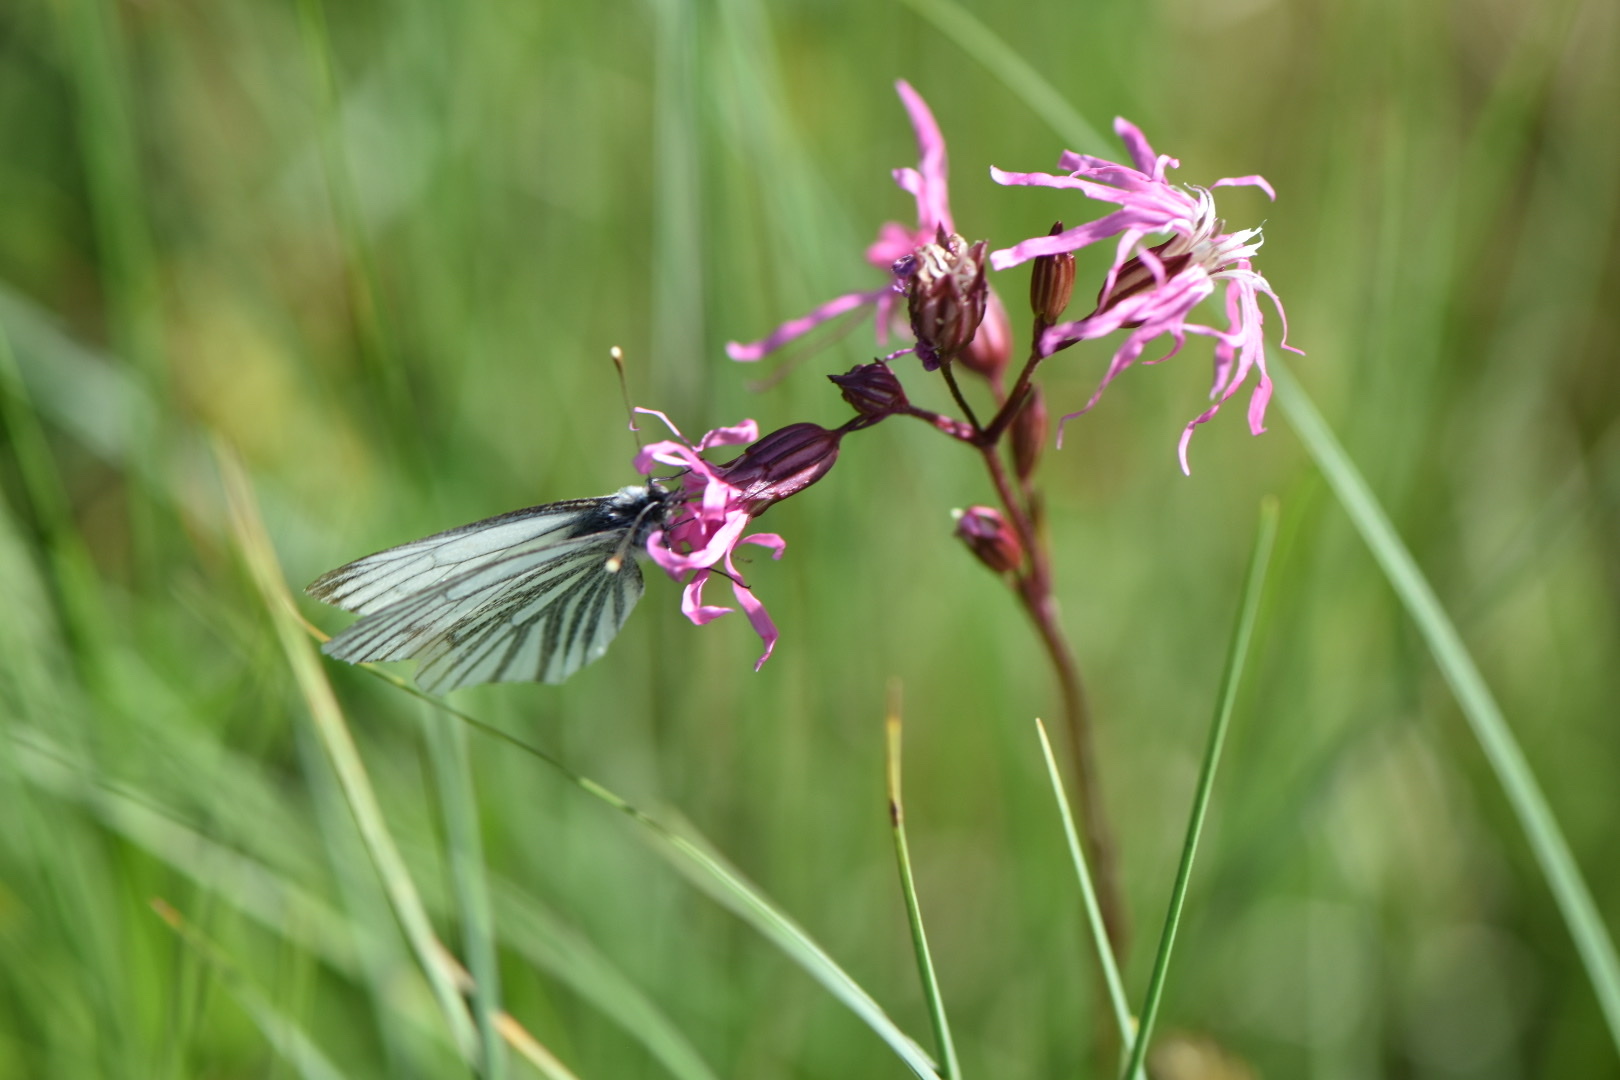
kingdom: Animalia
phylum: Arthropoda
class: Insecta
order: Lepidoptera
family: Pieridae
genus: Pieris
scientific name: Pieris napi
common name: Green-veined white
